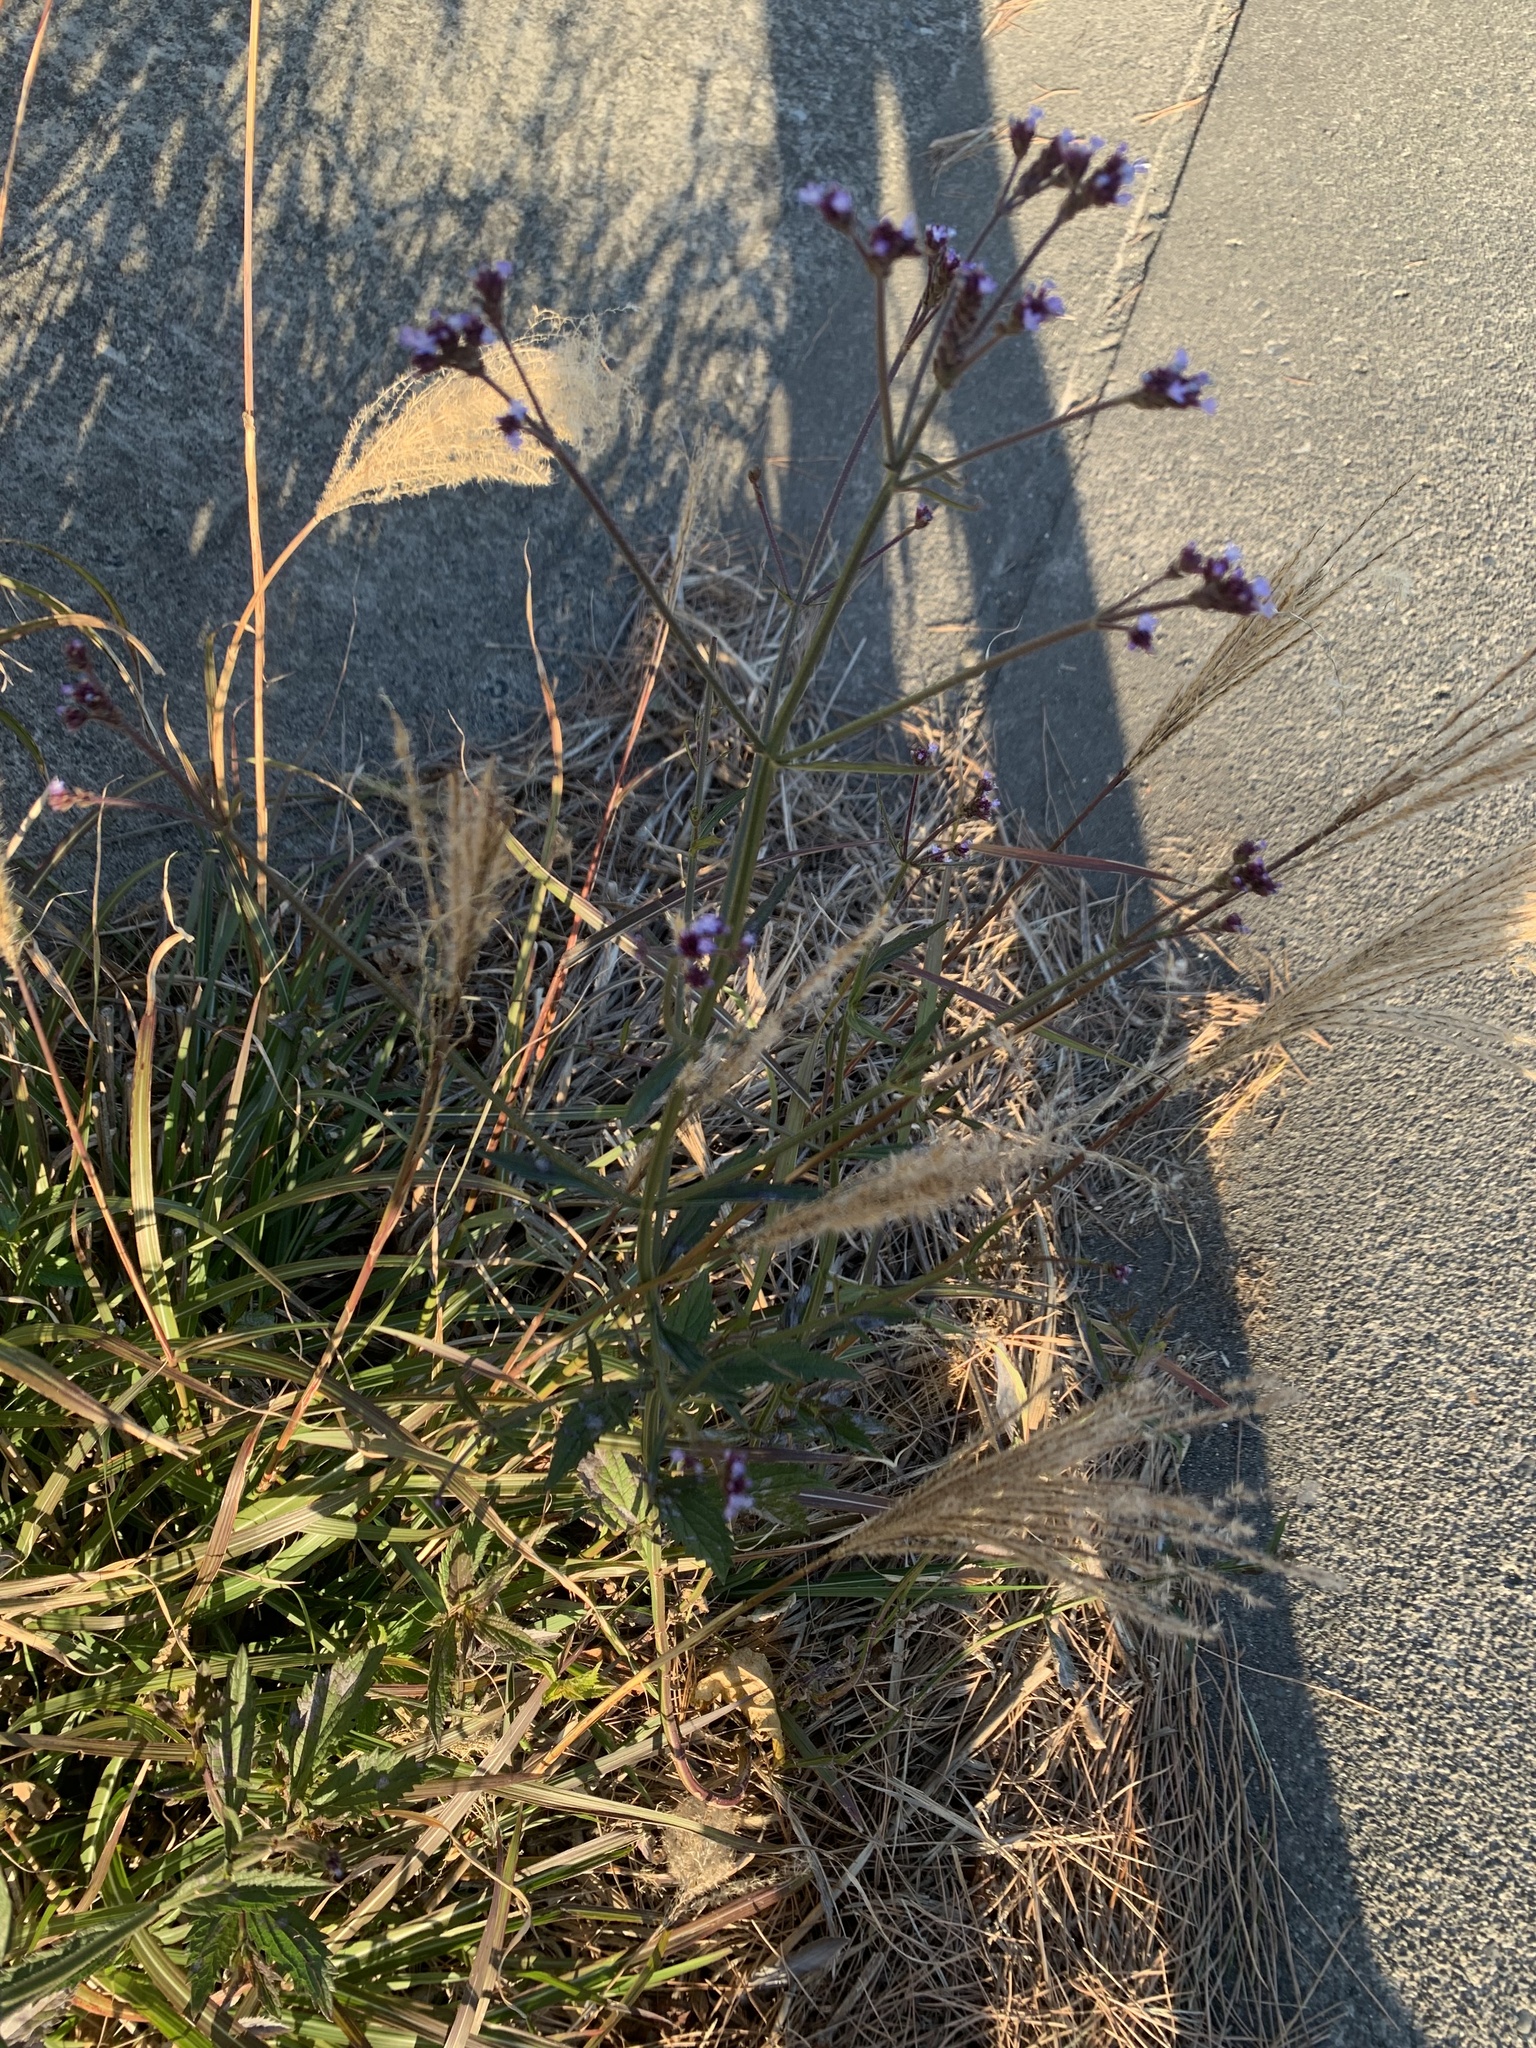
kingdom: Plantae
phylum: Tracheophyta
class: Magnoliopsida
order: Lamiales
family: Verbenaceae
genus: Verbena
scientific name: Verbena brasiliensis
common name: Brazilian vervain
